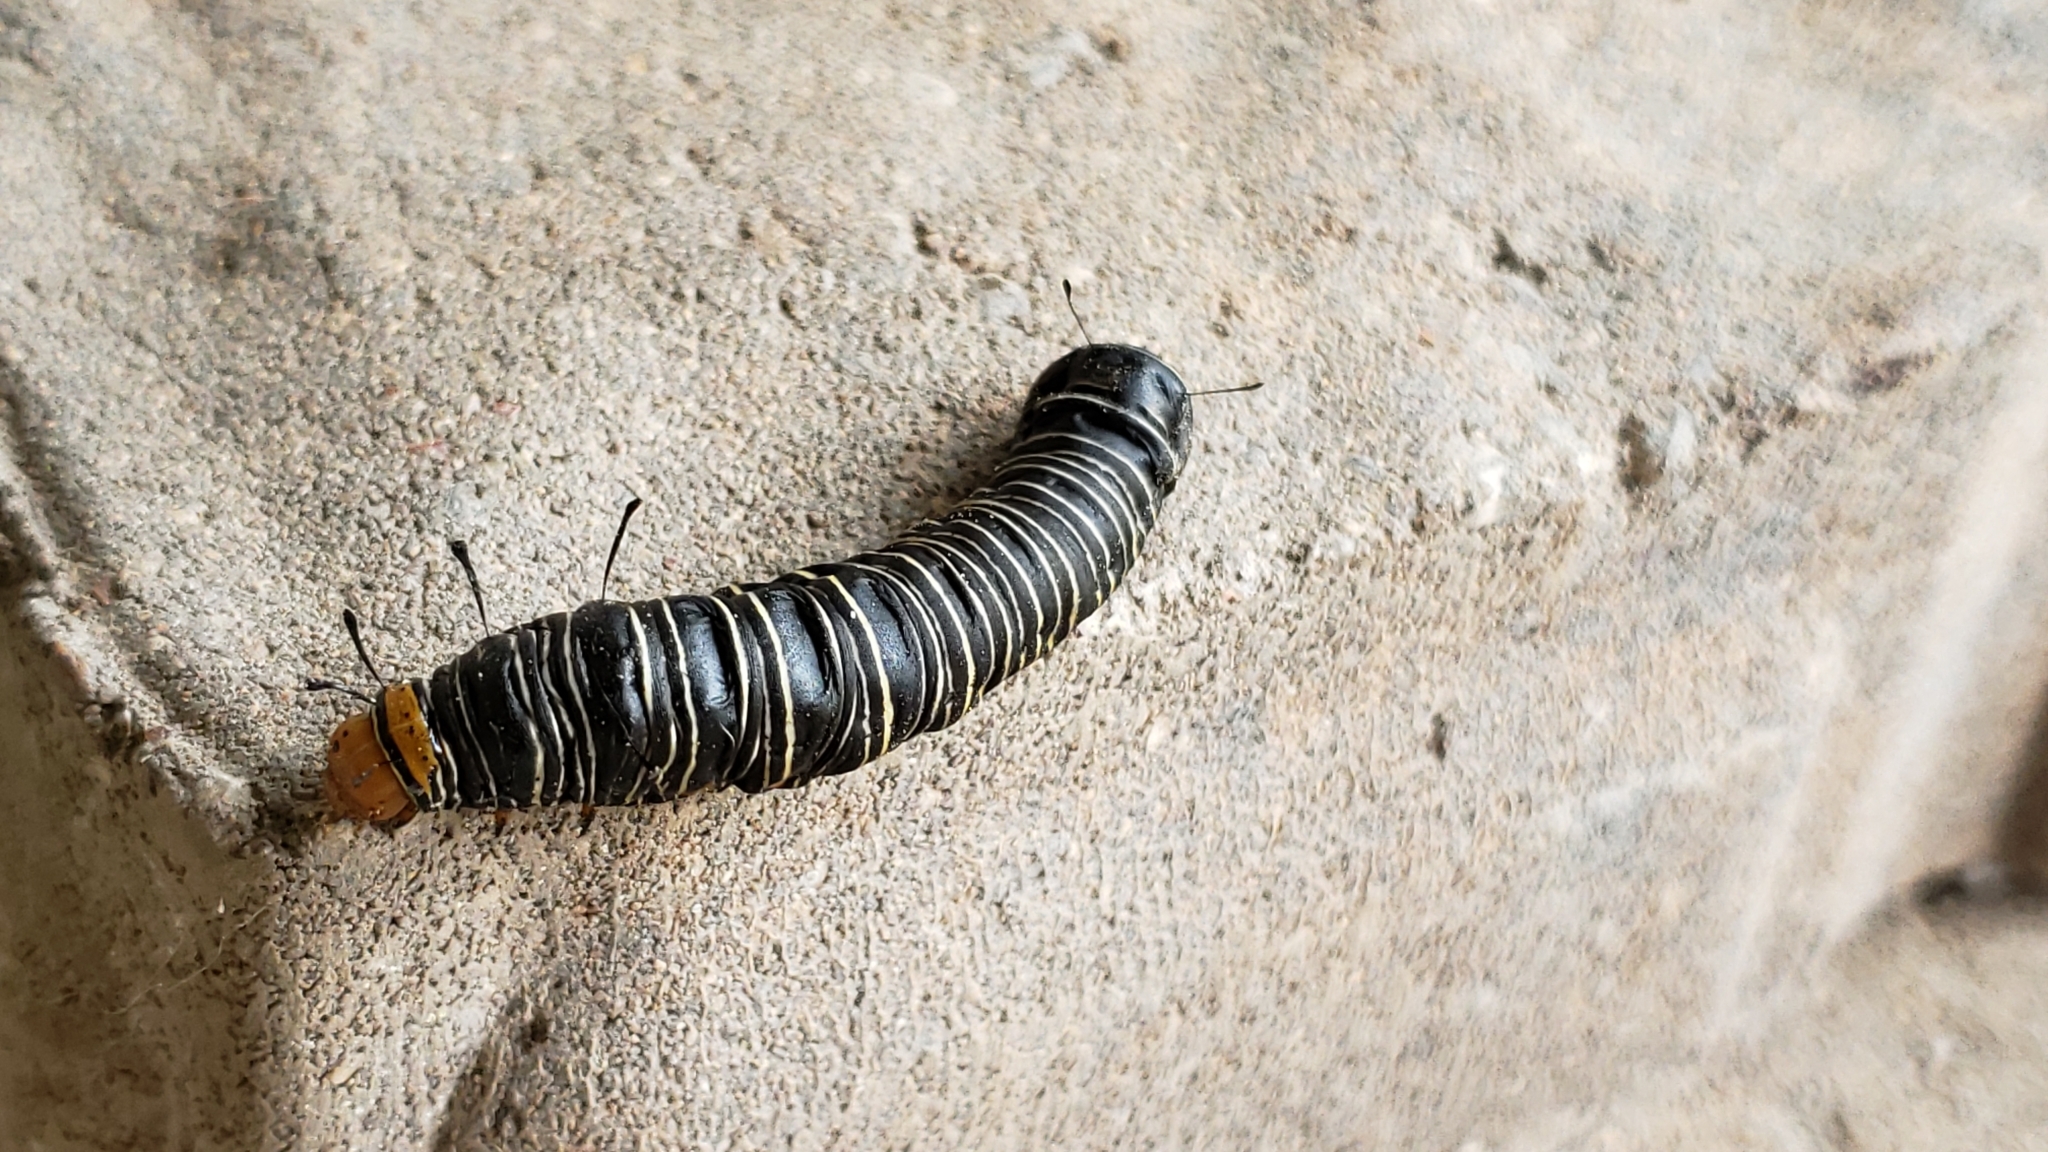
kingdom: Animalia
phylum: Arthropoda
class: Insecta
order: Lepidoptera
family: Noctuidae
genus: Xerociris
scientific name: Xerociris wilsonii
